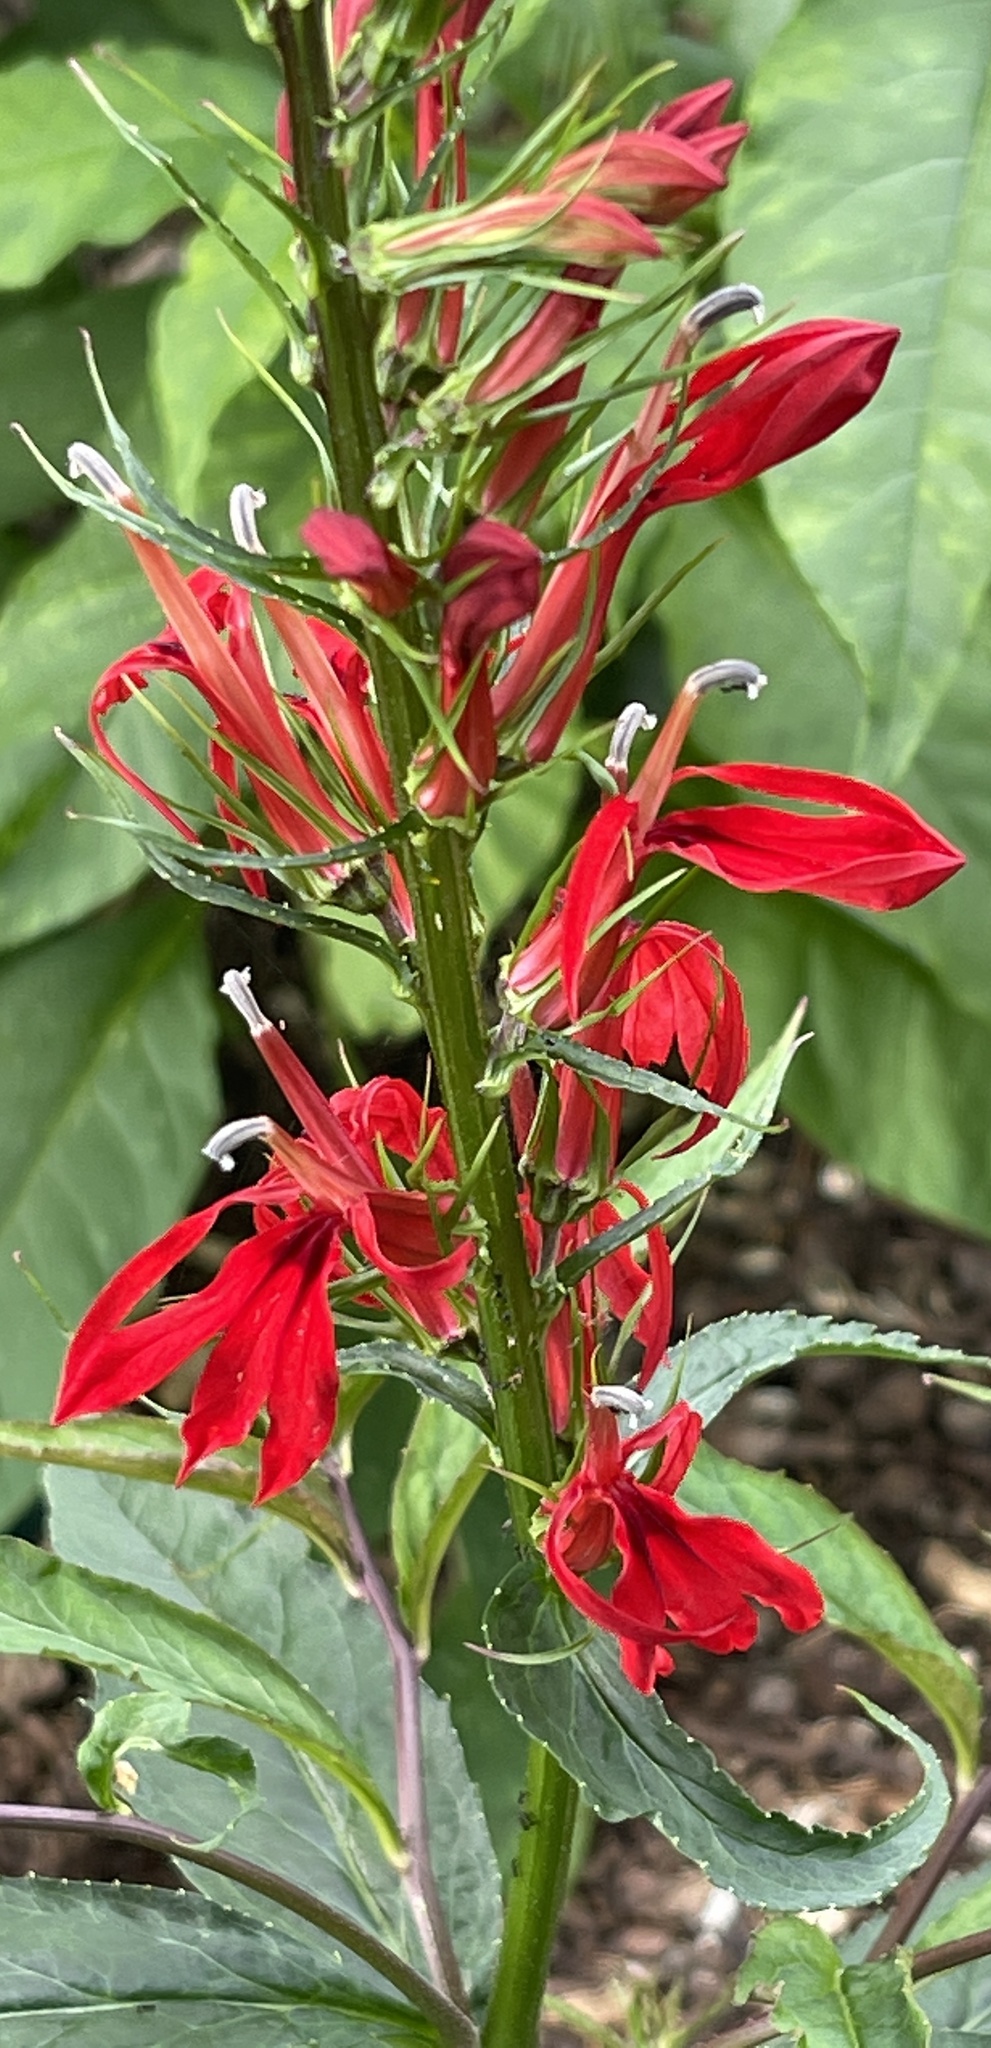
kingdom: Plantae
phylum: Tracheophyta
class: Magnoliopsida
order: Asterales
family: Campanulaceae
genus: Lobelia
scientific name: Lobelia cardinalis
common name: Cardinal flower
